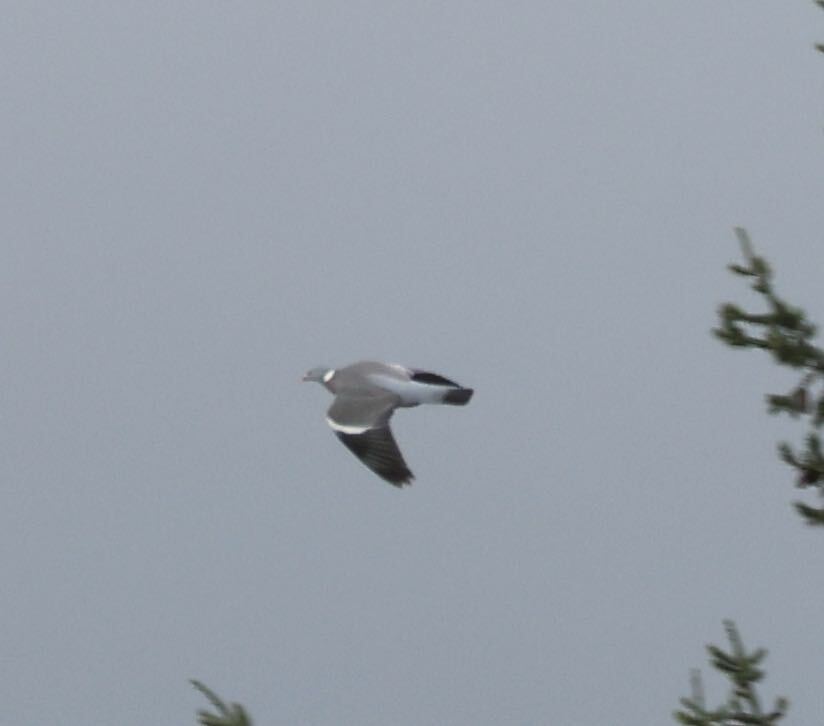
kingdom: Animalia
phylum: Chordata
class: Aves
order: Columbiformes
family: Columbidae
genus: Columba
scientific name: Columba palumbus
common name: Common wood pigeon
